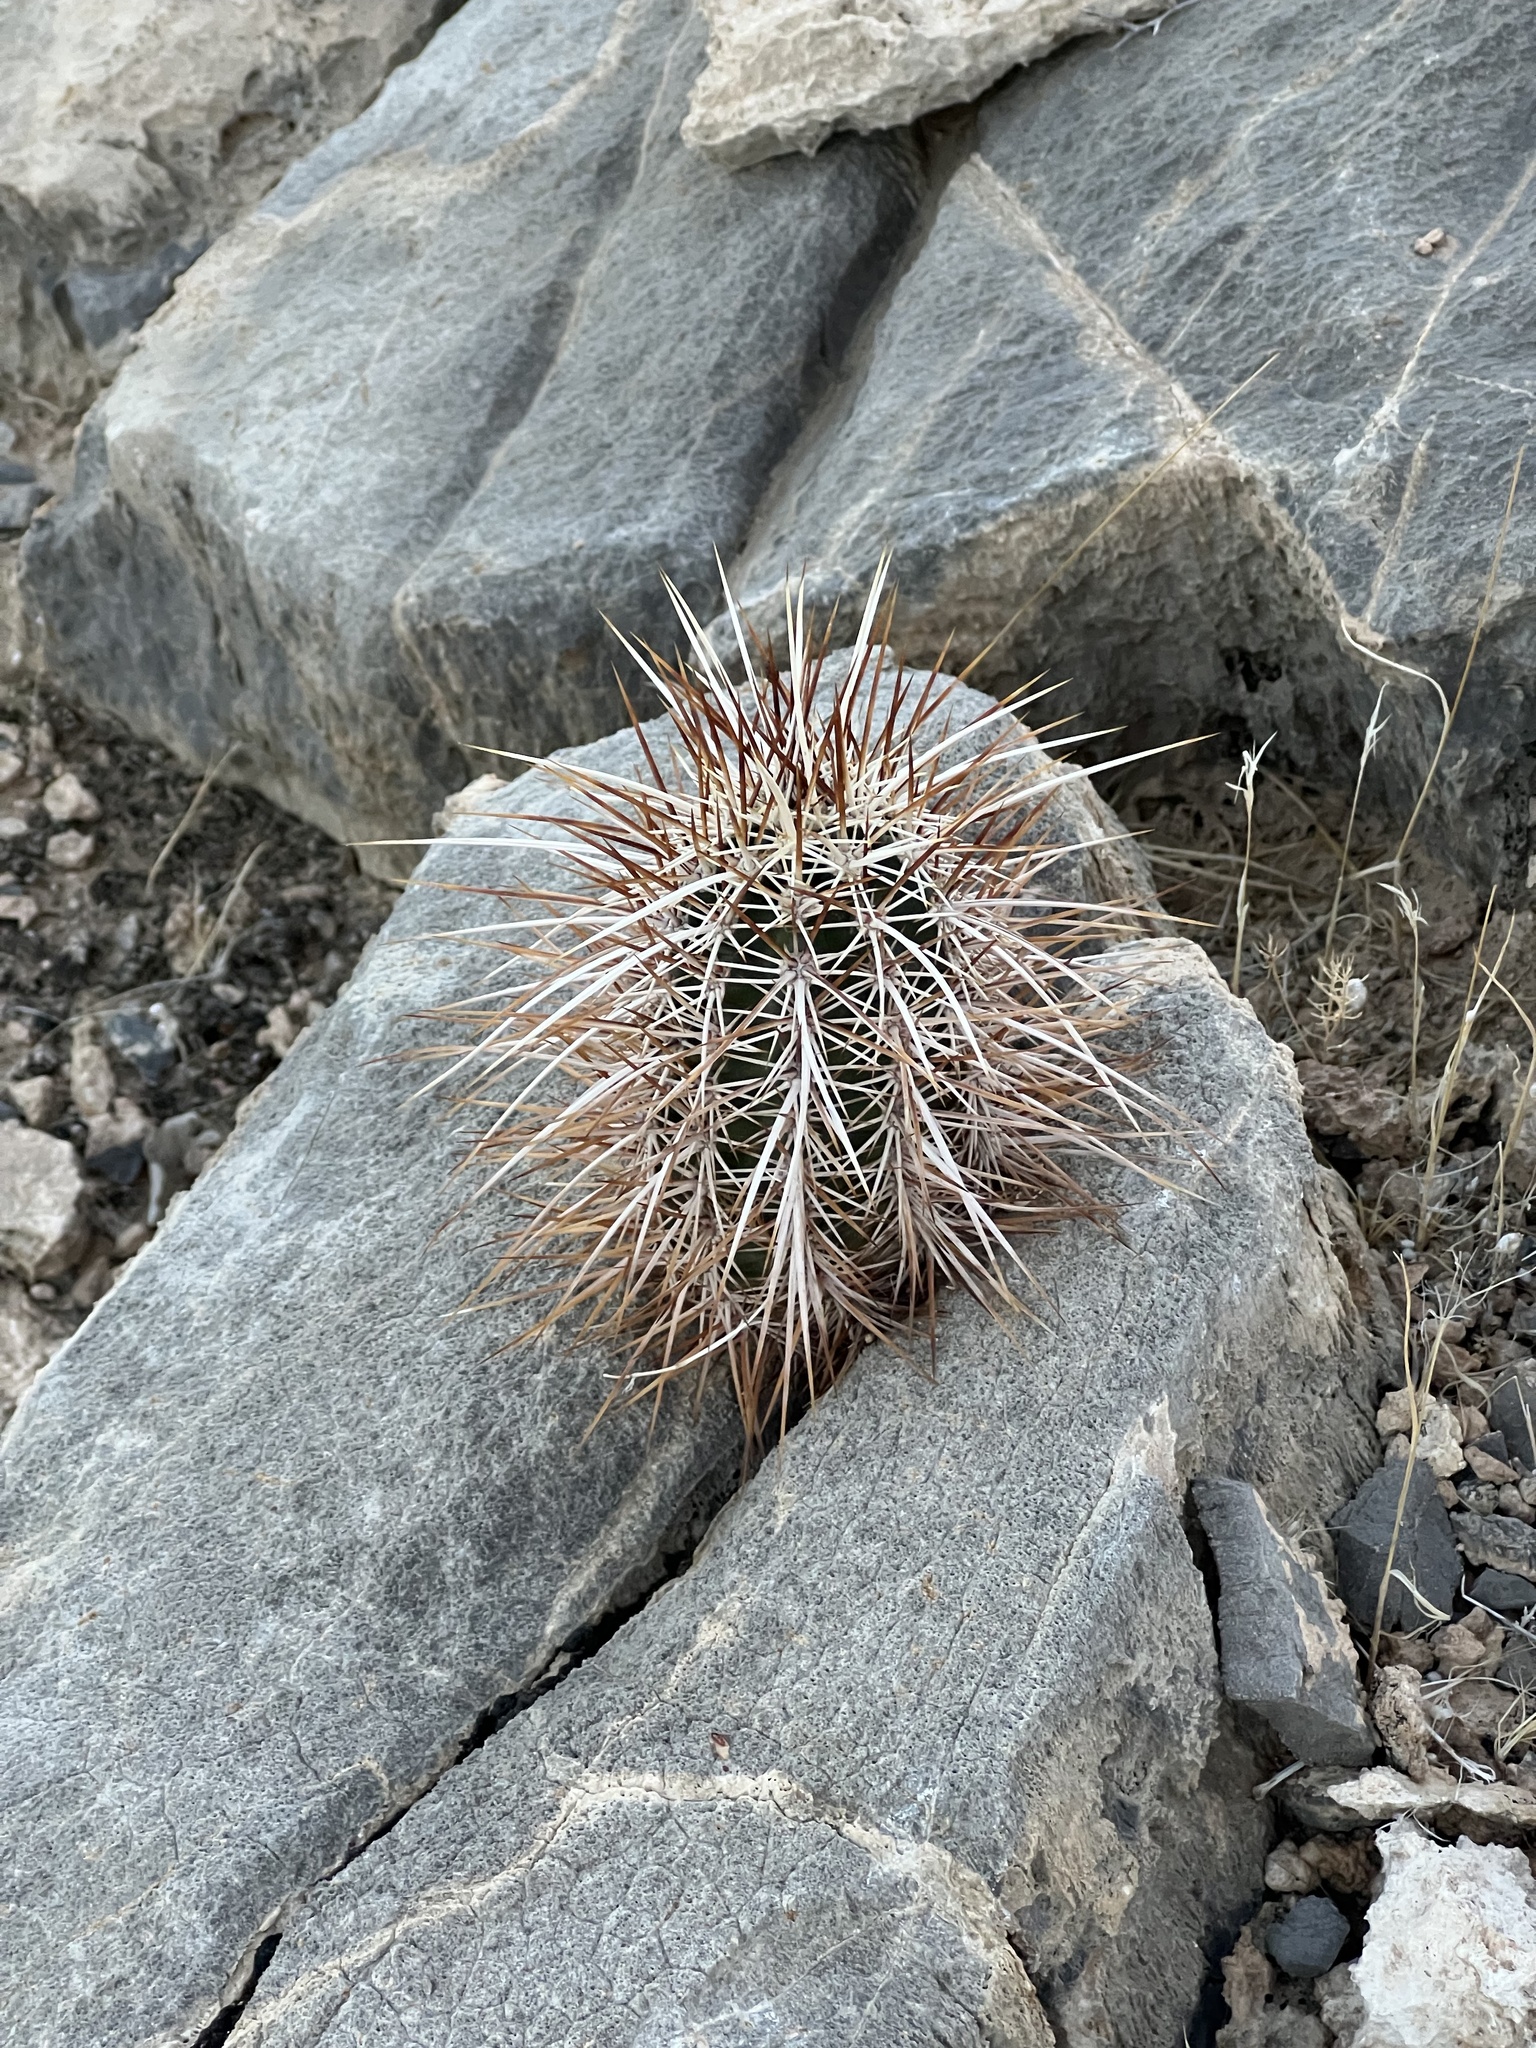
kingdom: Plantae
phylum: Tracheophyta
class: Magnoliopsida
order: Caryophyllales
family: Cactaceae
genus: Echinocereus
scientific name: Echinocereus engelmannii
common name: Engelmann's hedgehog cactus
